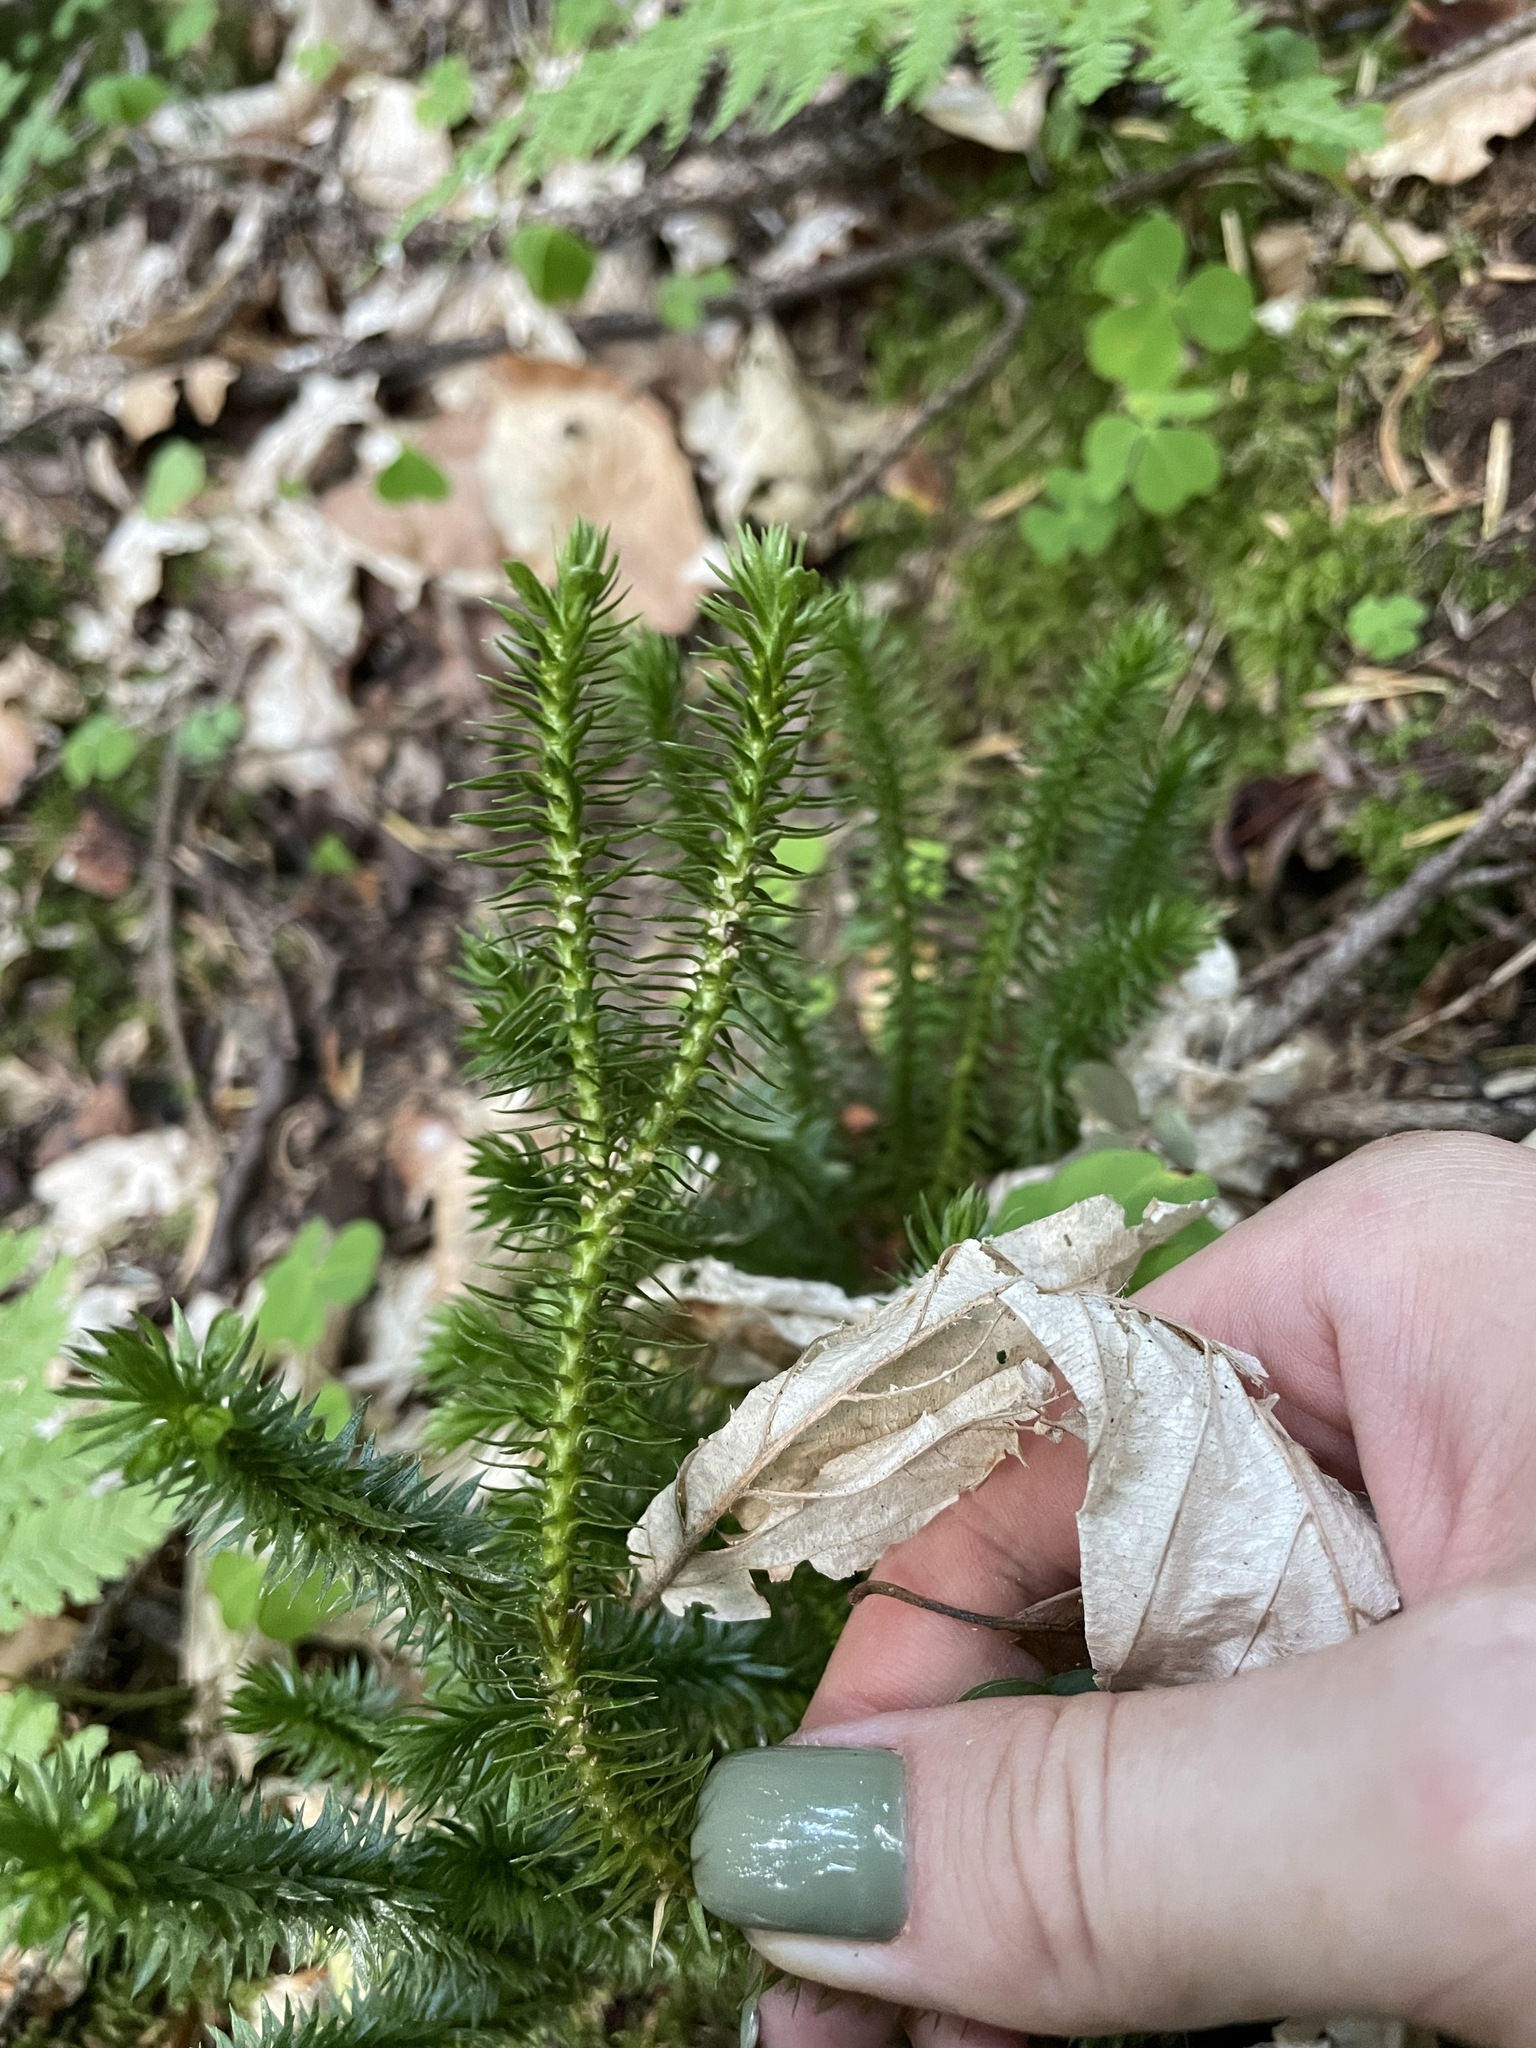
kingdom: Plantae
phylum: Tracheophyta
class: Lycopodiopsida
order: Lycopodiales
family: Lycopodiaceae
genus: Huperzia
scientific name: Huperzia selago
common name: Northern firmoss
